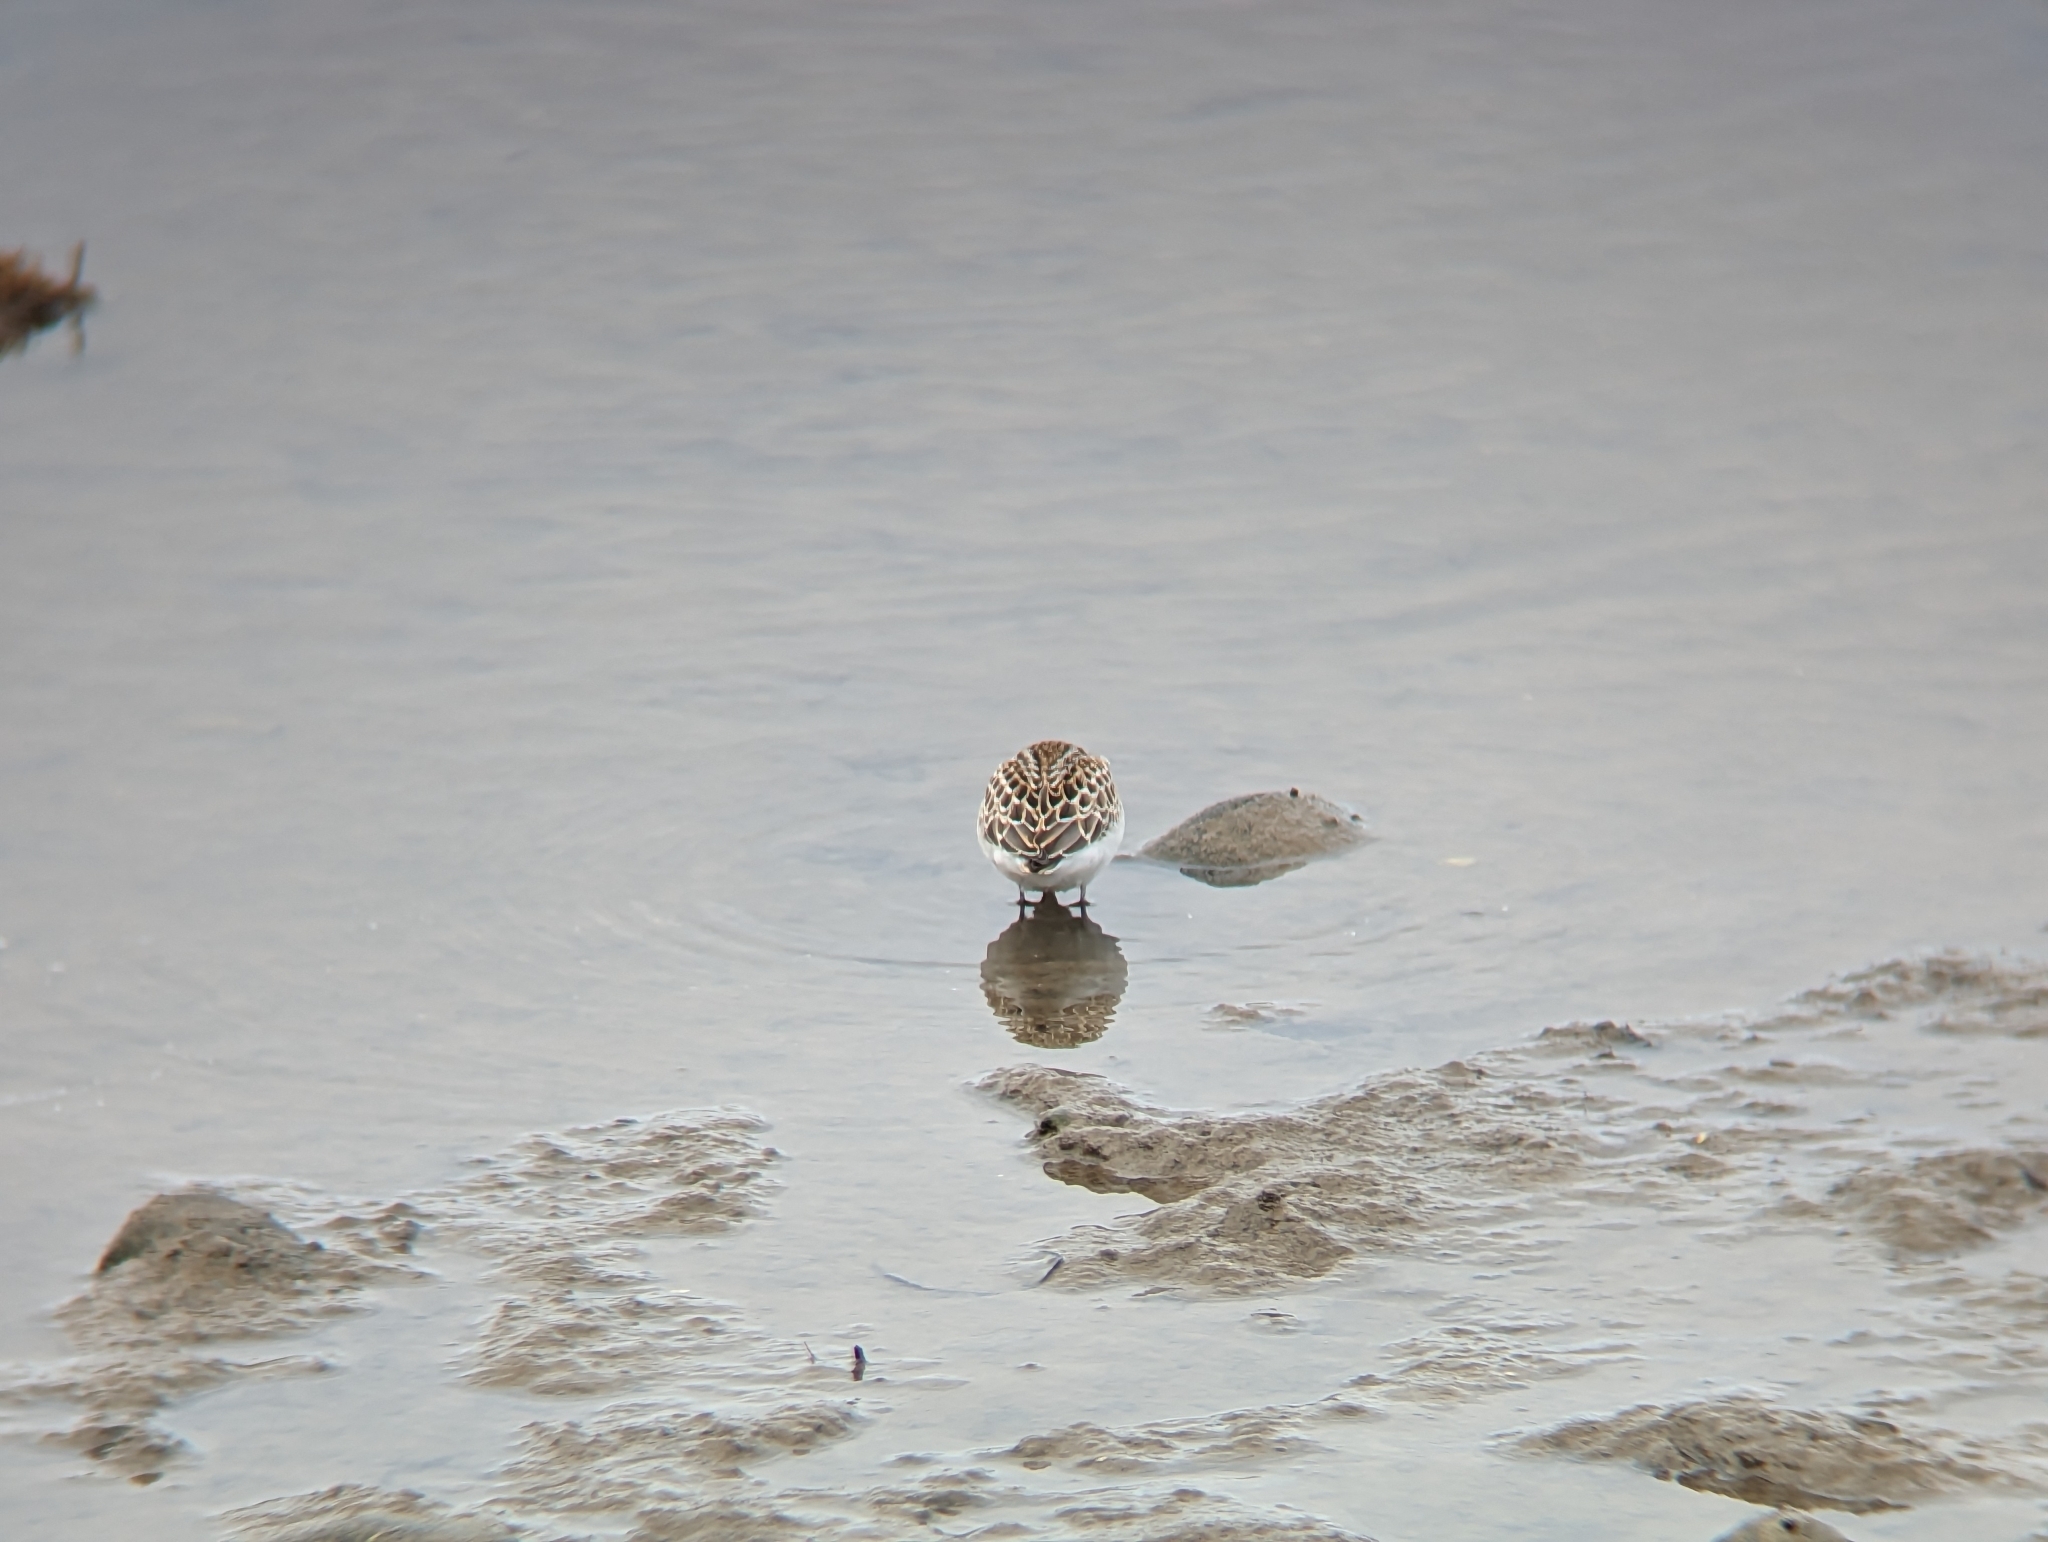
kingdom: Animalia
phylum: Chordata
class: Aves
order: Charadriiformes
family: Scolopacidae
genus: Calidris
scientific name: Calidris pusilla
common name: Semipalmated sandpiper
